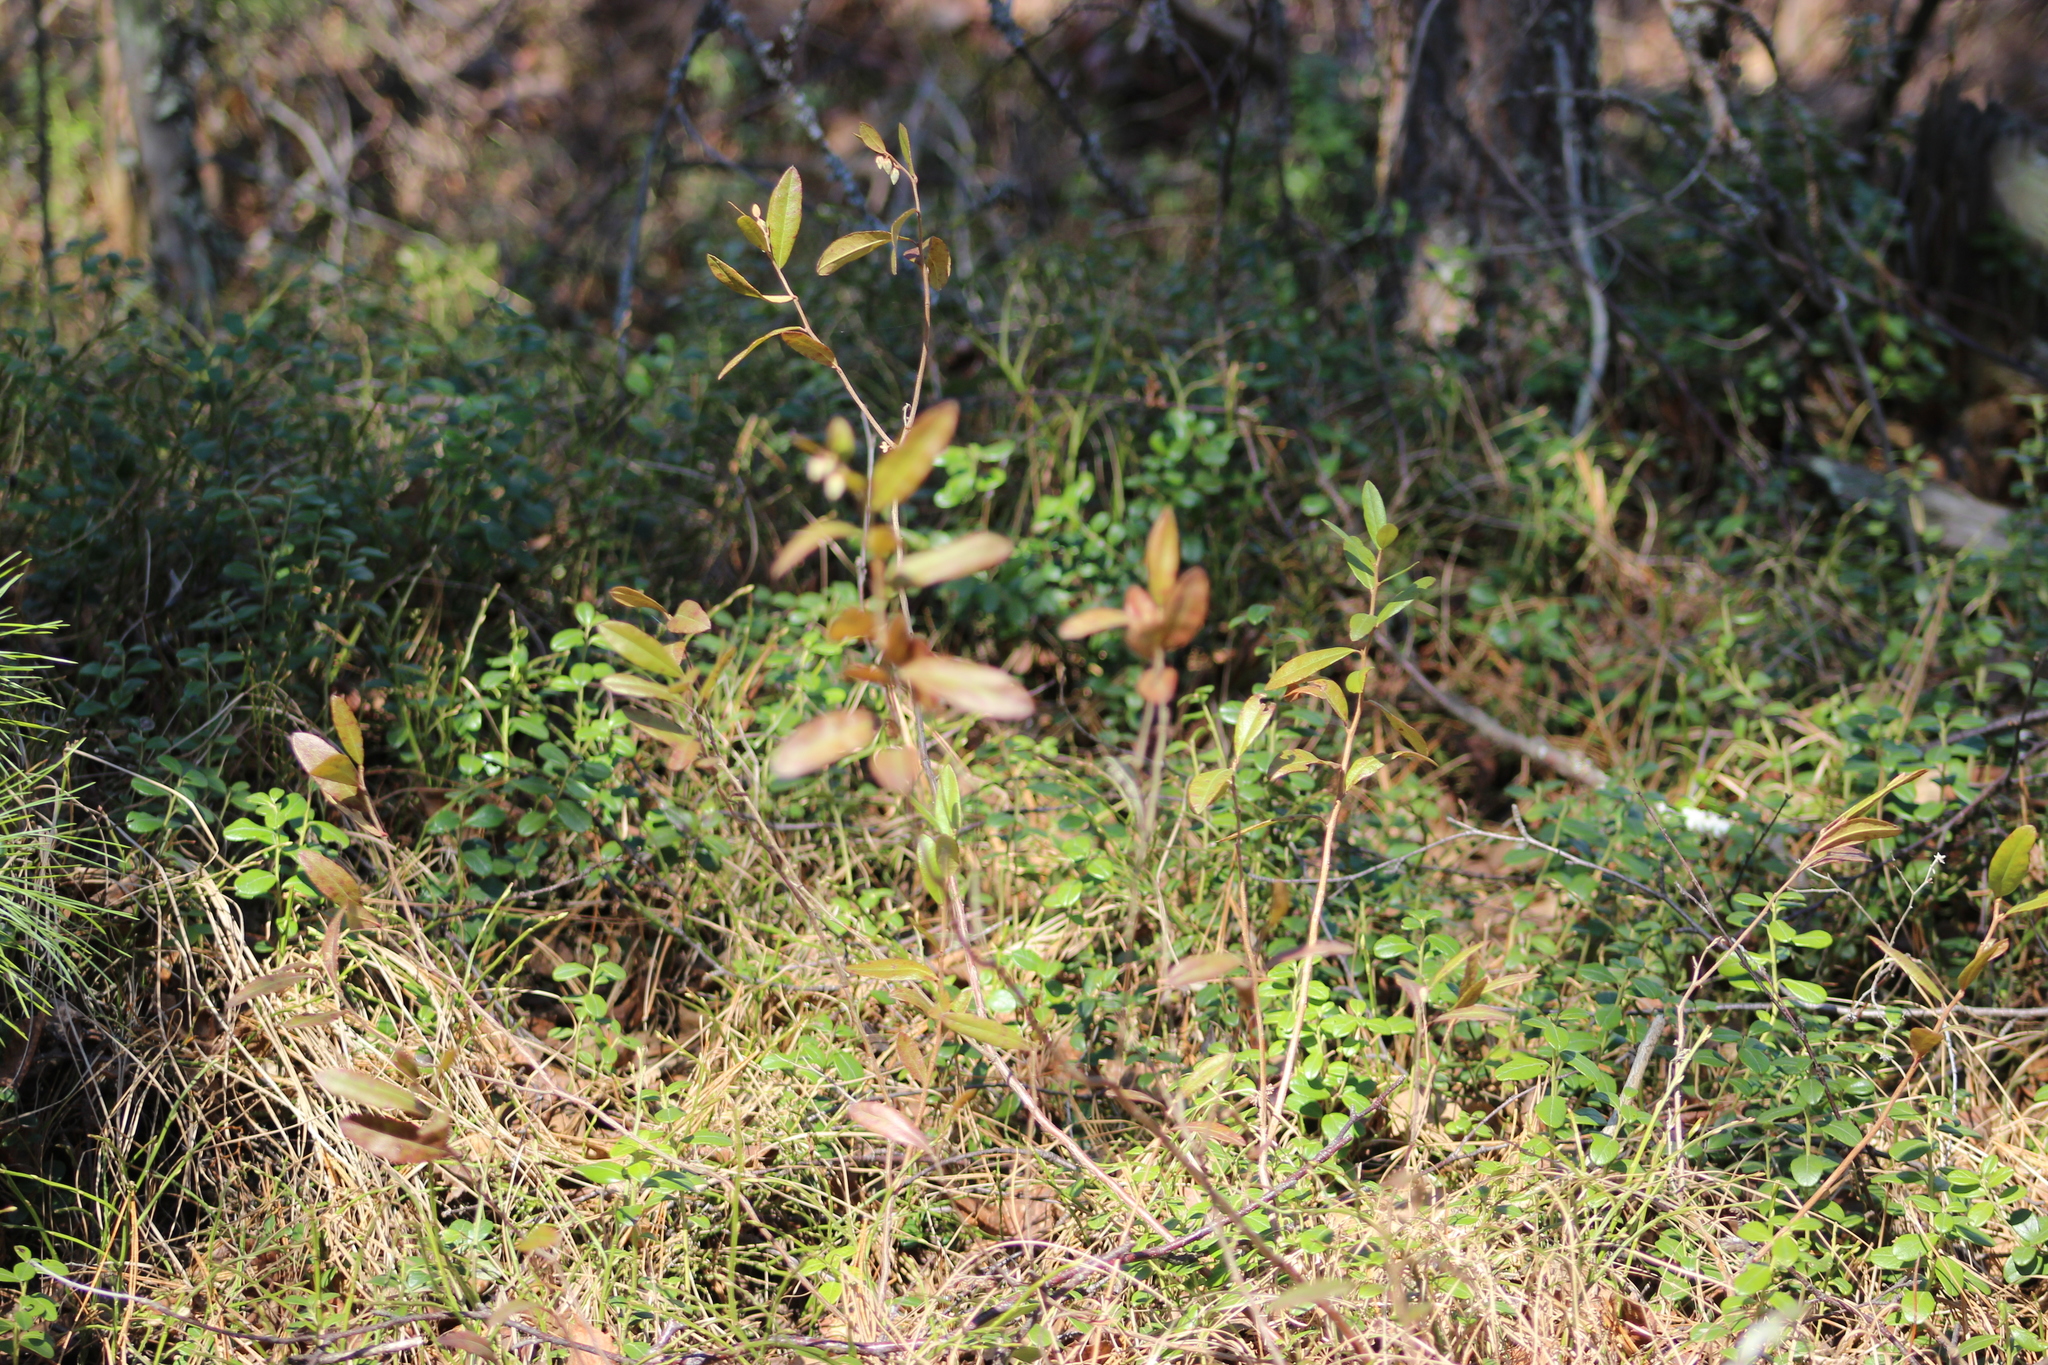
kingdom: Plantae
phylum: Tracheophyta
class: Magnoliopsida
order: Ericales
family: Ericaceae
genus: Chamaedaphne
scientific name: Chamaedaphne calyculata
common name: Leatherleaf
